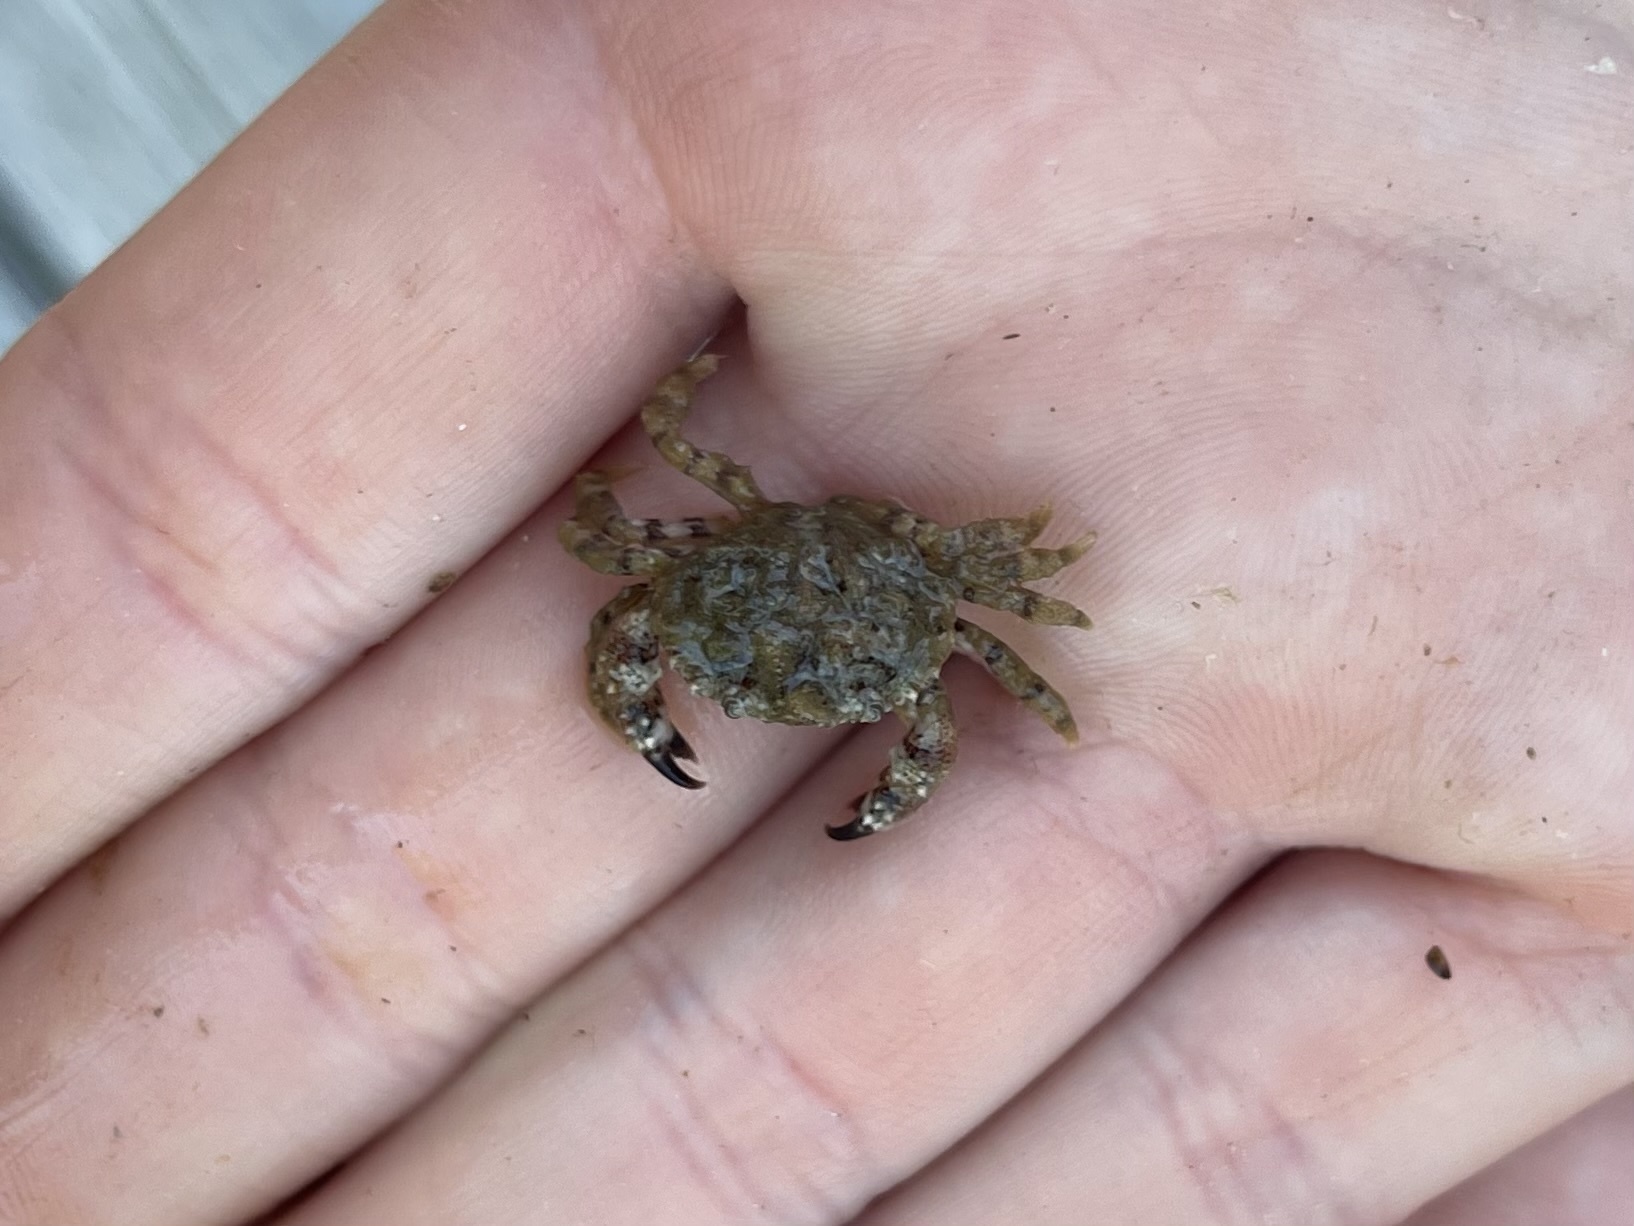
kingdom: Animalia
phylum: Arthropoda
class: Malacostraca
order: Decapoda
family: Cancridae
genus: Glebocarcinus
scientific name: Glebocarcinus oregonensis
